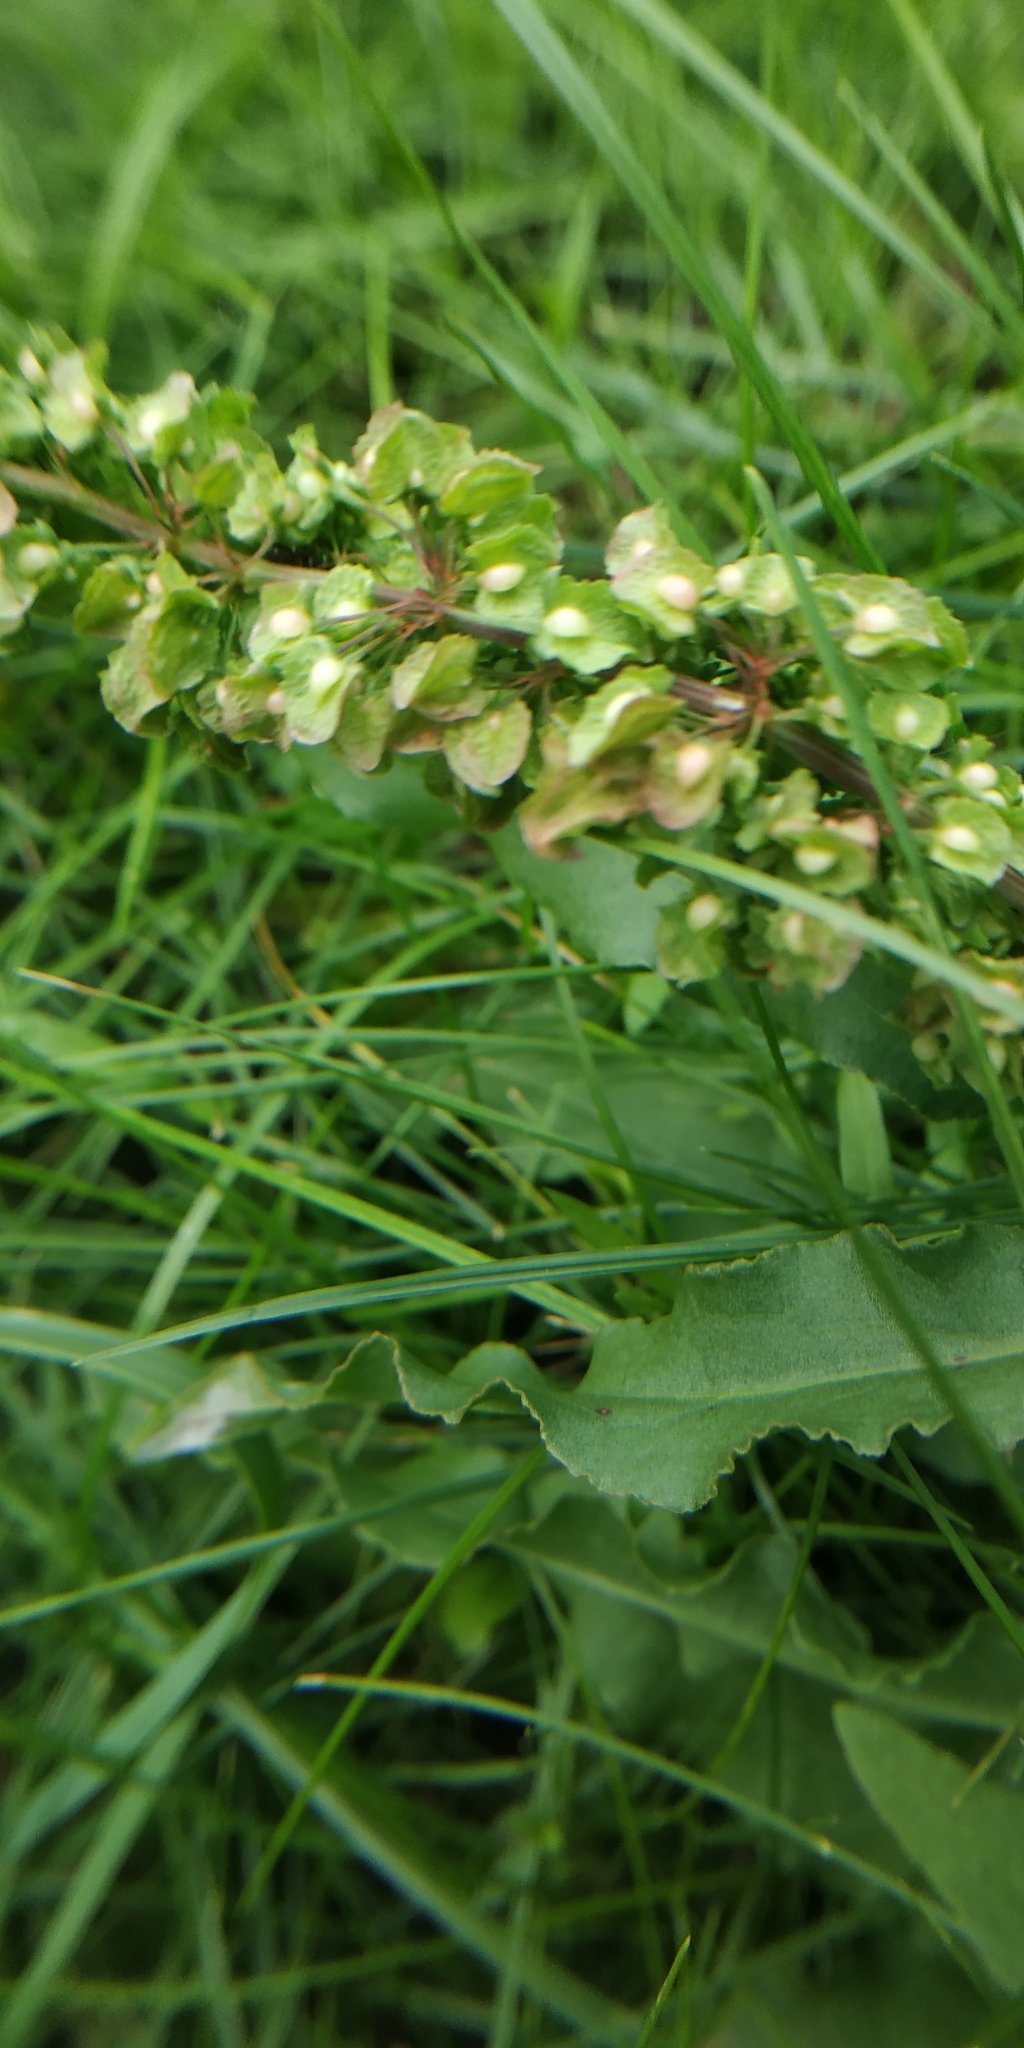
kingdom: Plantae
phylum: Tracheophyta
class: Magnoliopsida
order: Caryophyllales
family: Polygonaceae
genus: Rumex
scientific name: Rumex stenophyllus
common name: Narrowleaf dock
